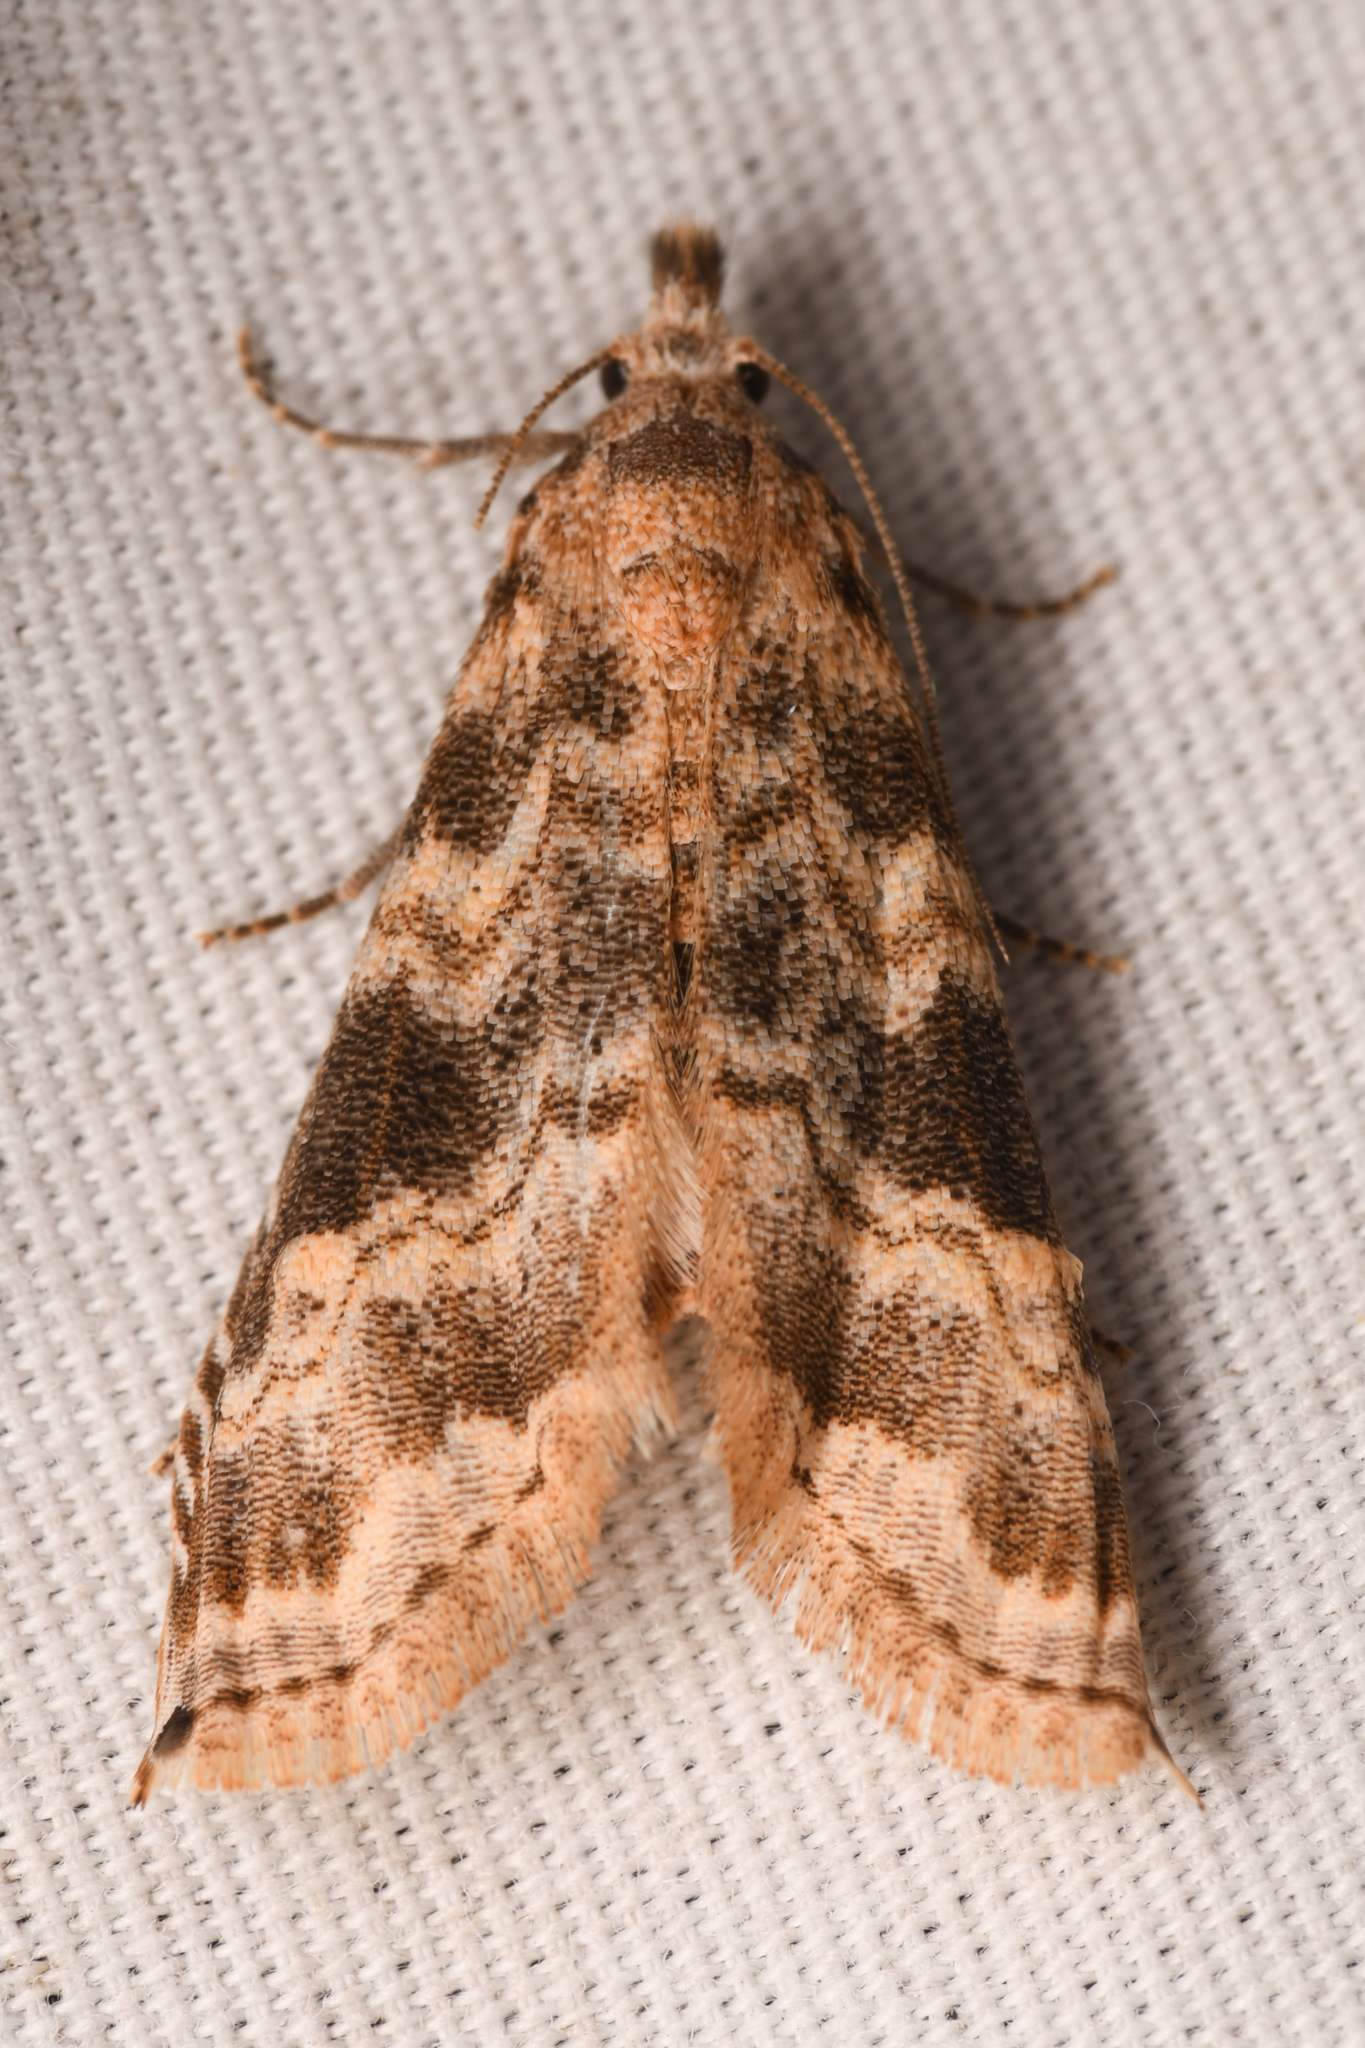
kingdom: Animalia
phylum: Arthropoda
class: Insecta
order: Lepidoptera
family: Noctuidae
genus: Phobolosia
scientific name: Phobolosia anfracta
